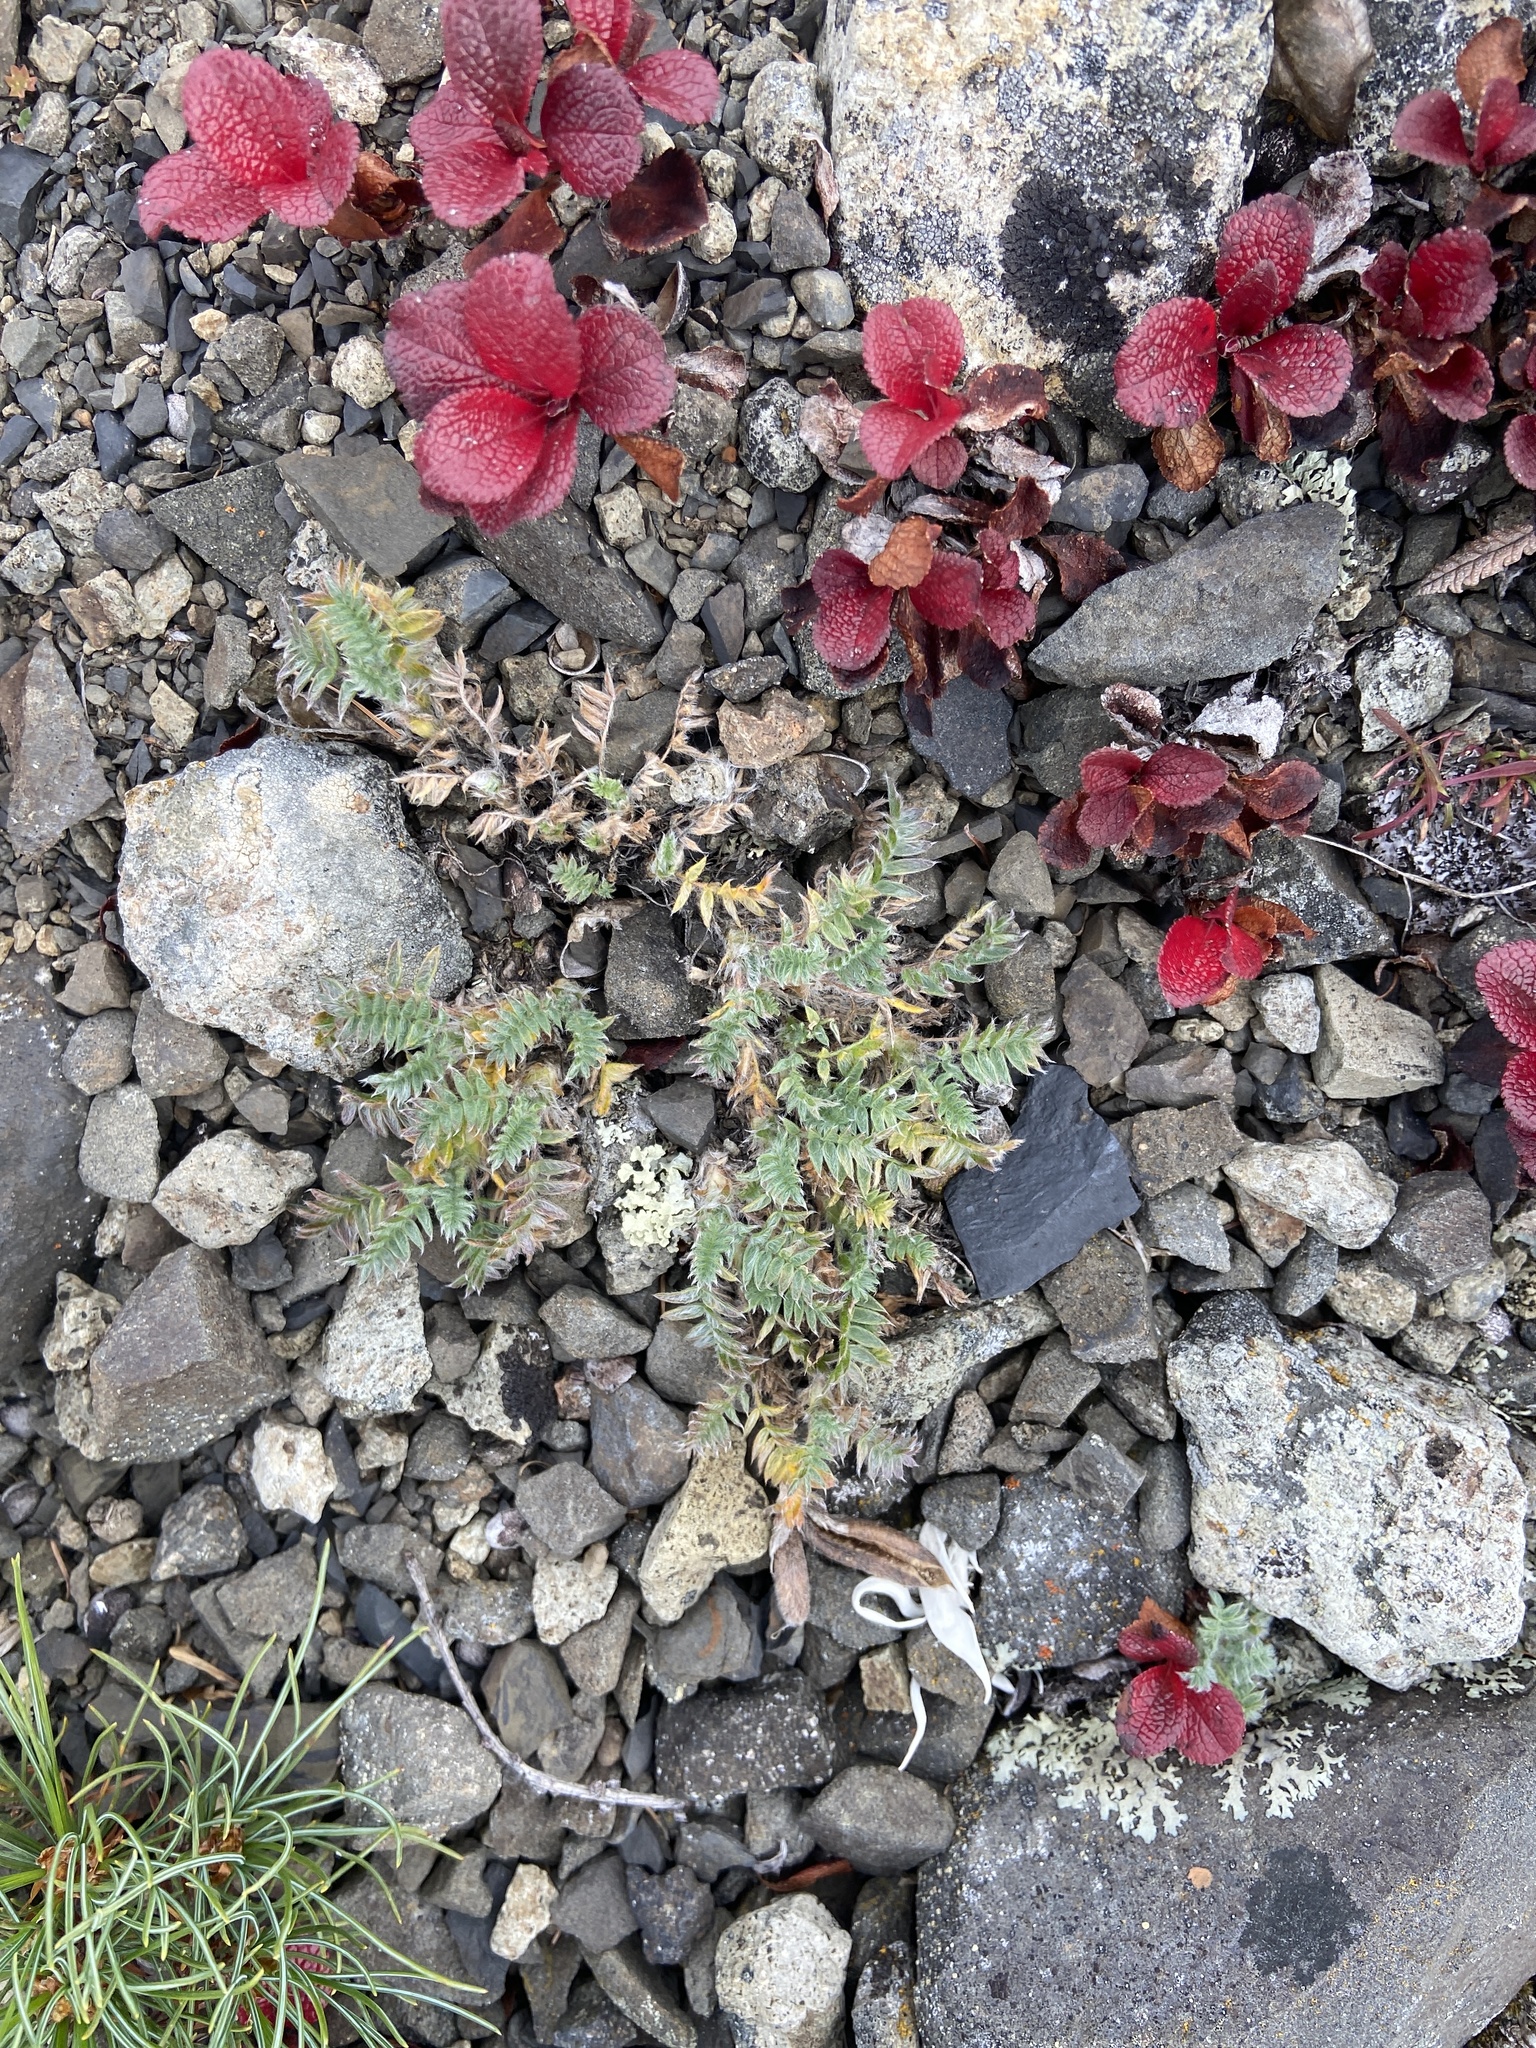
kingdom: Plantae
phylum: Tracheophyta
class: Magnoliopsida
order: Fabales
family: Fabaceae
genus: Oxytropis
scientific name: Oxytropis susumanica
